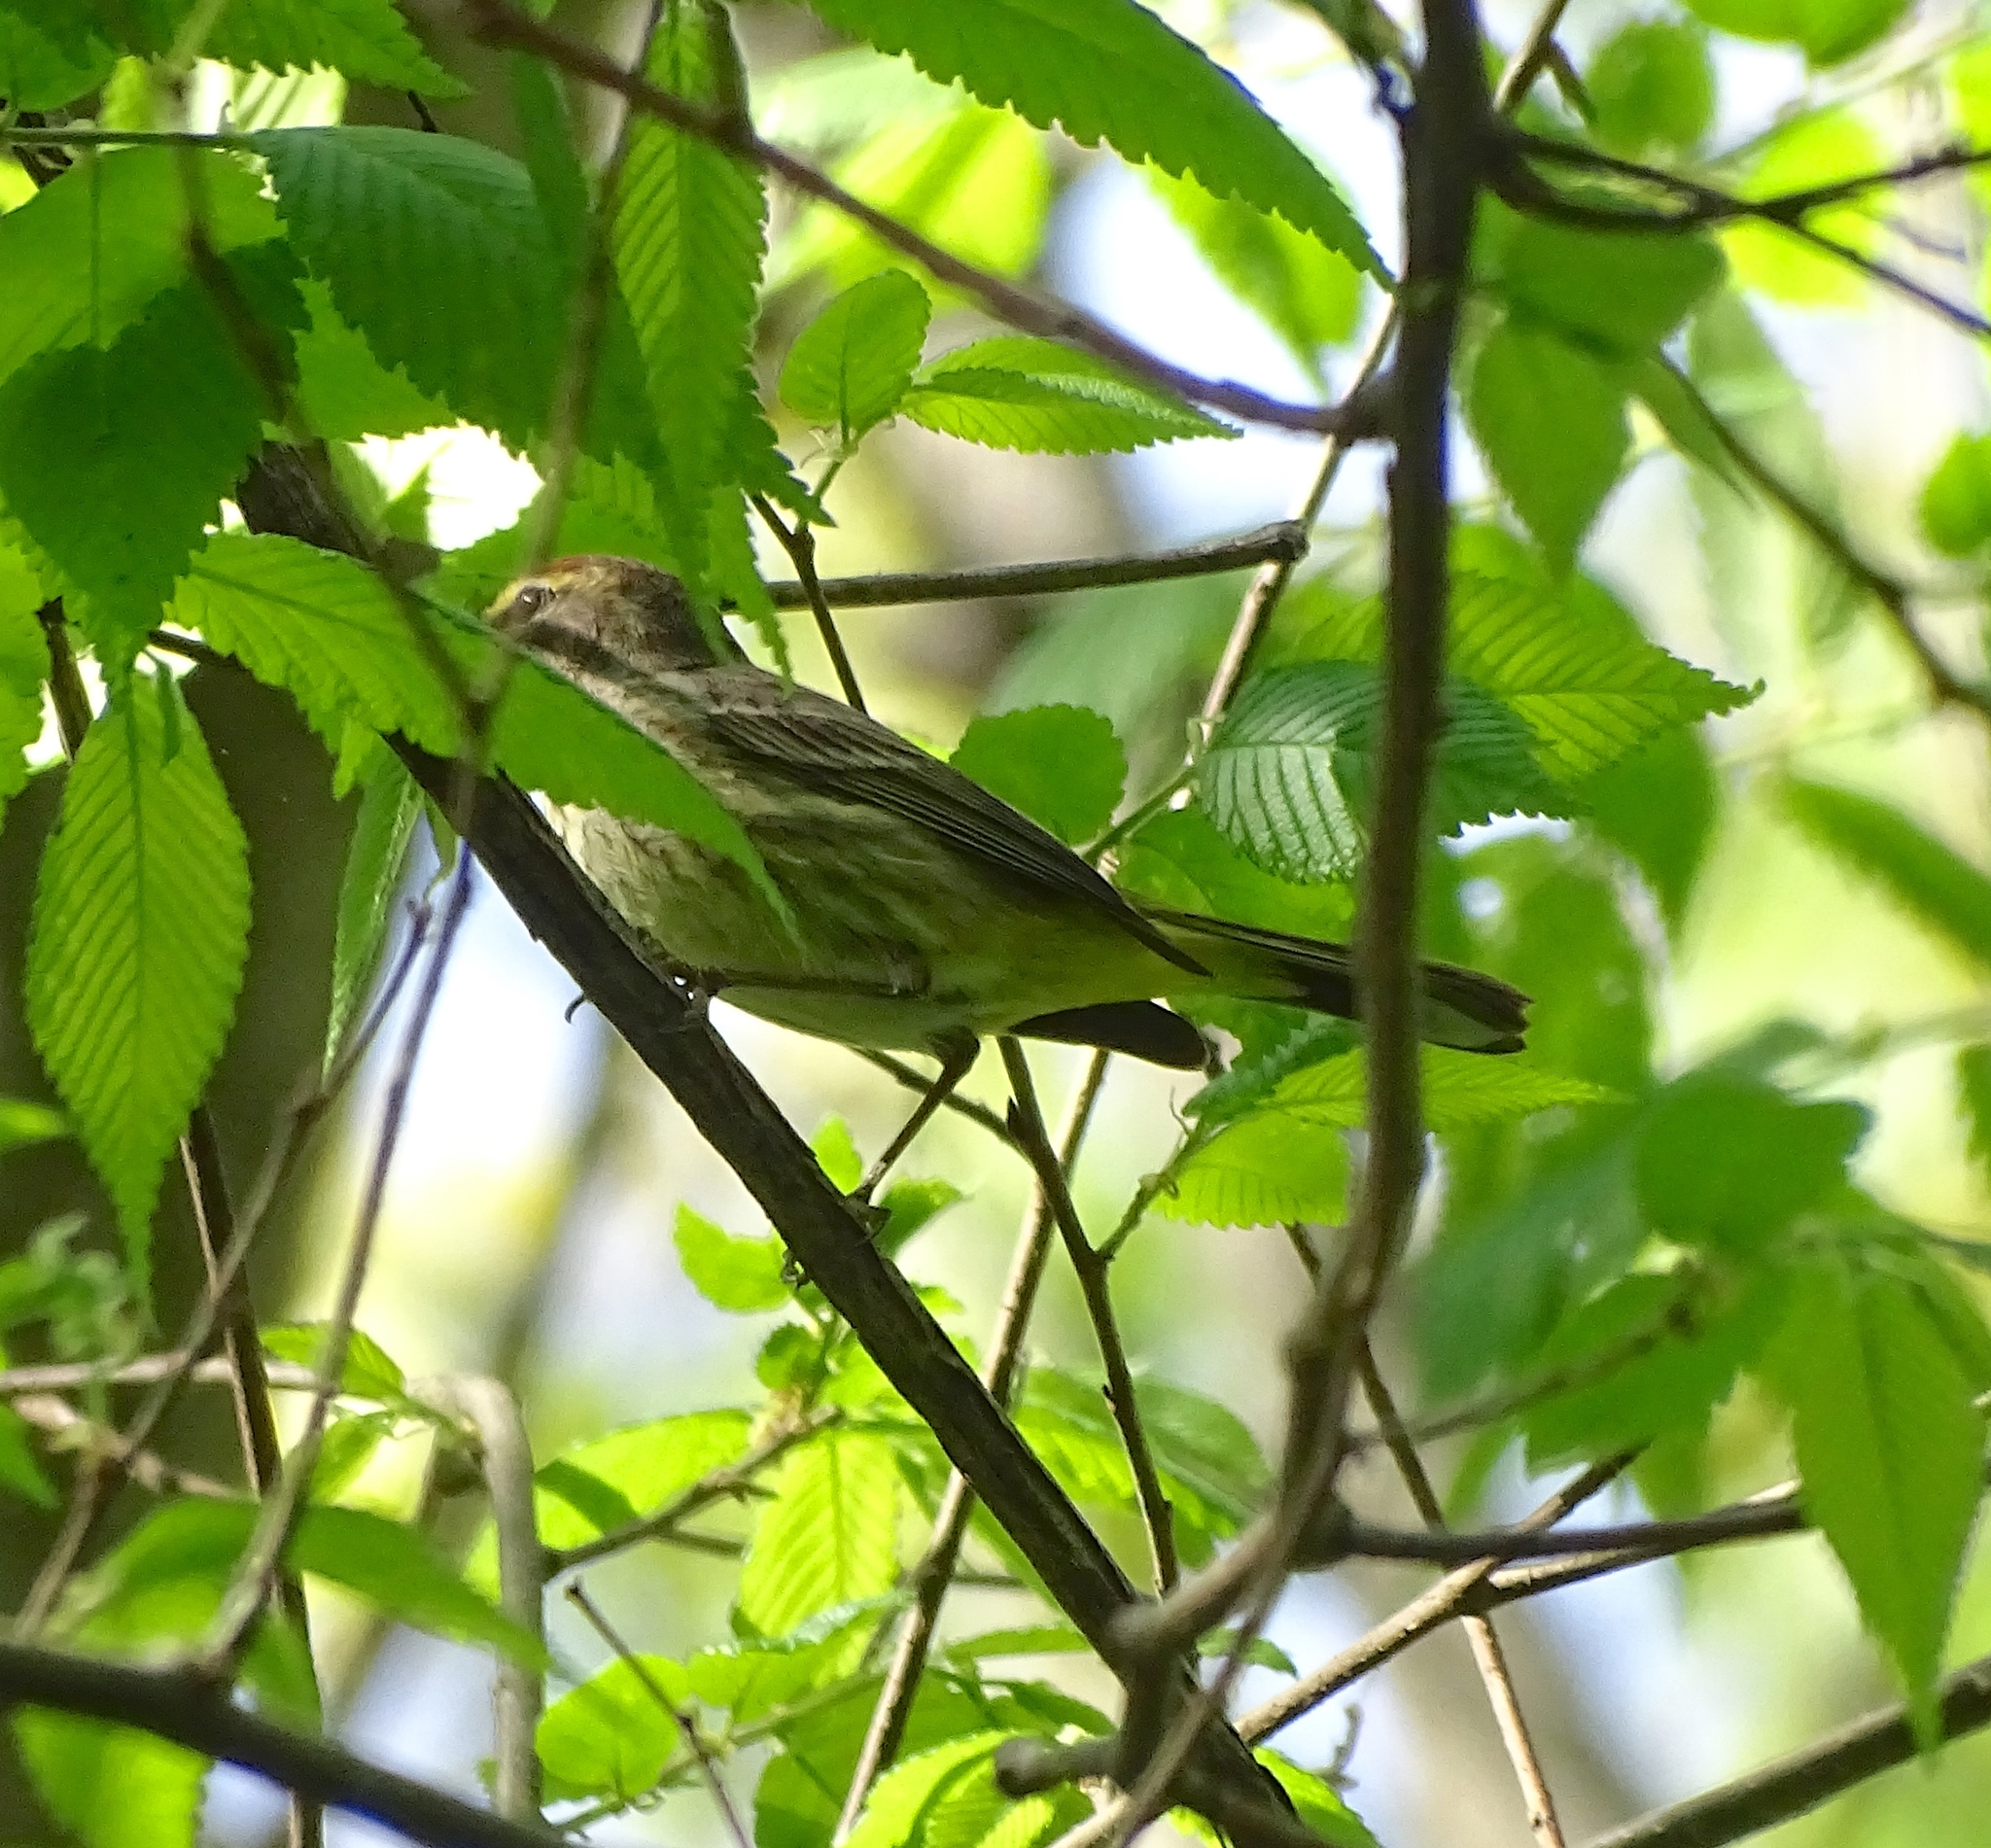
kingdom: Animalia
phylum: Chordata
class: Aves
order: Passeriformes
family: Parulidae
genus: Setophaga
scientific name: Setophaga palmarum
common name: Palm warbler
